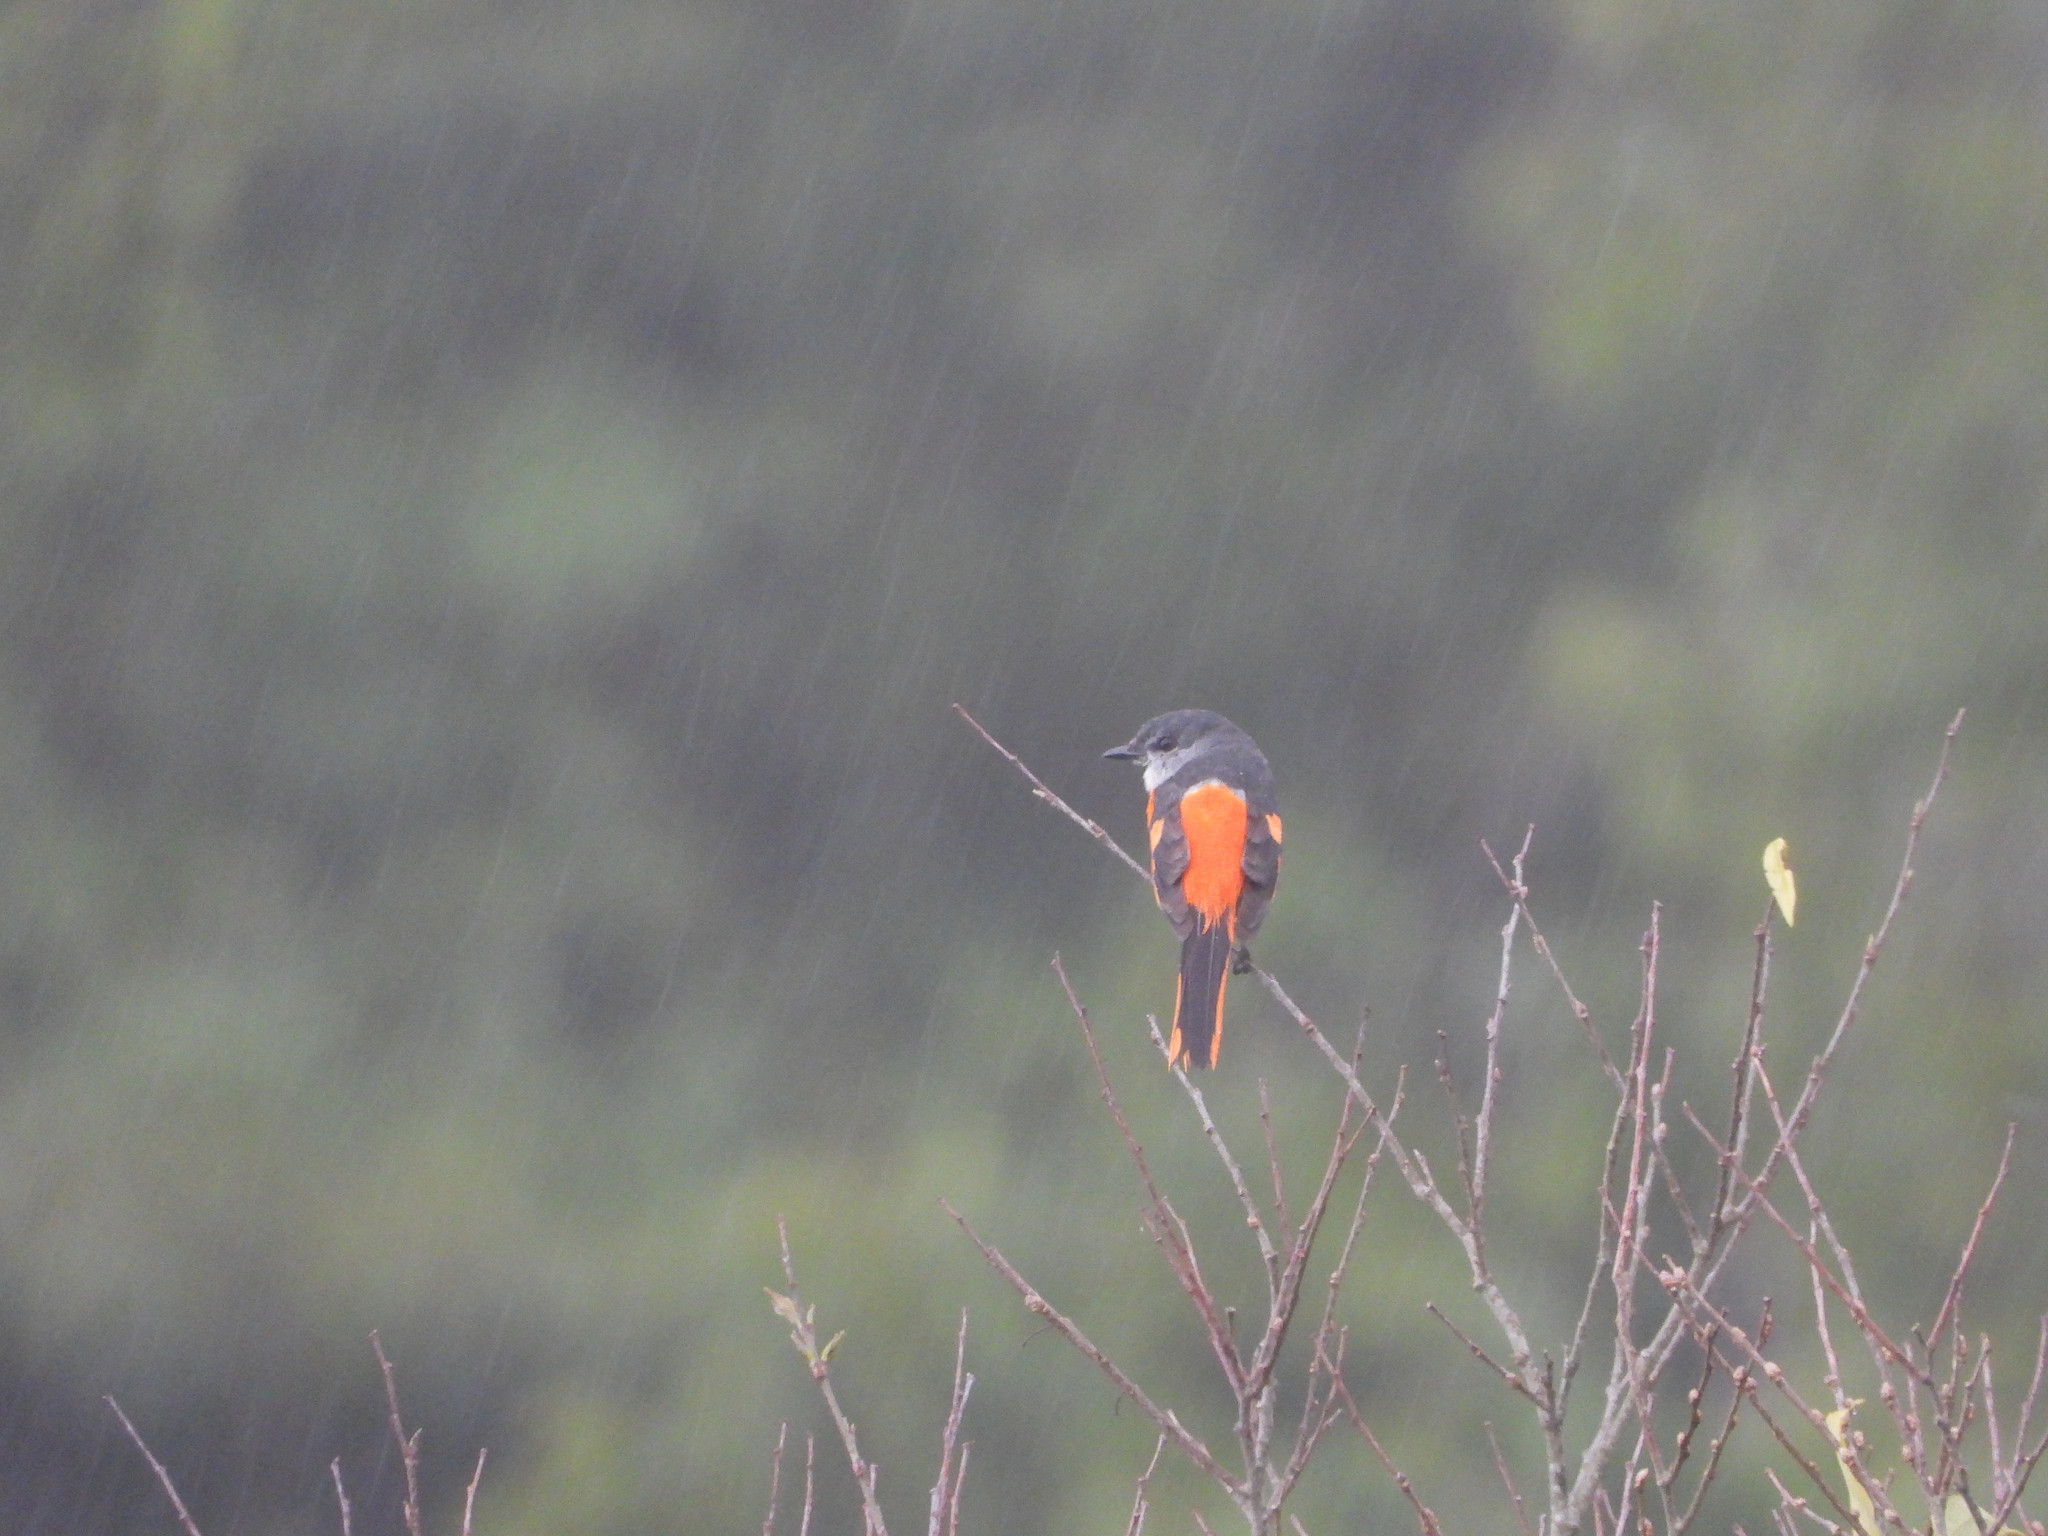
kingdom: Animalia
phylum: Chordata
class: Aves
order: Passeriformes
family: Campephagidae
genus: Pericrocotus
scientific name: Pericrocotus solaris
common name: Grey-chinned minivet
